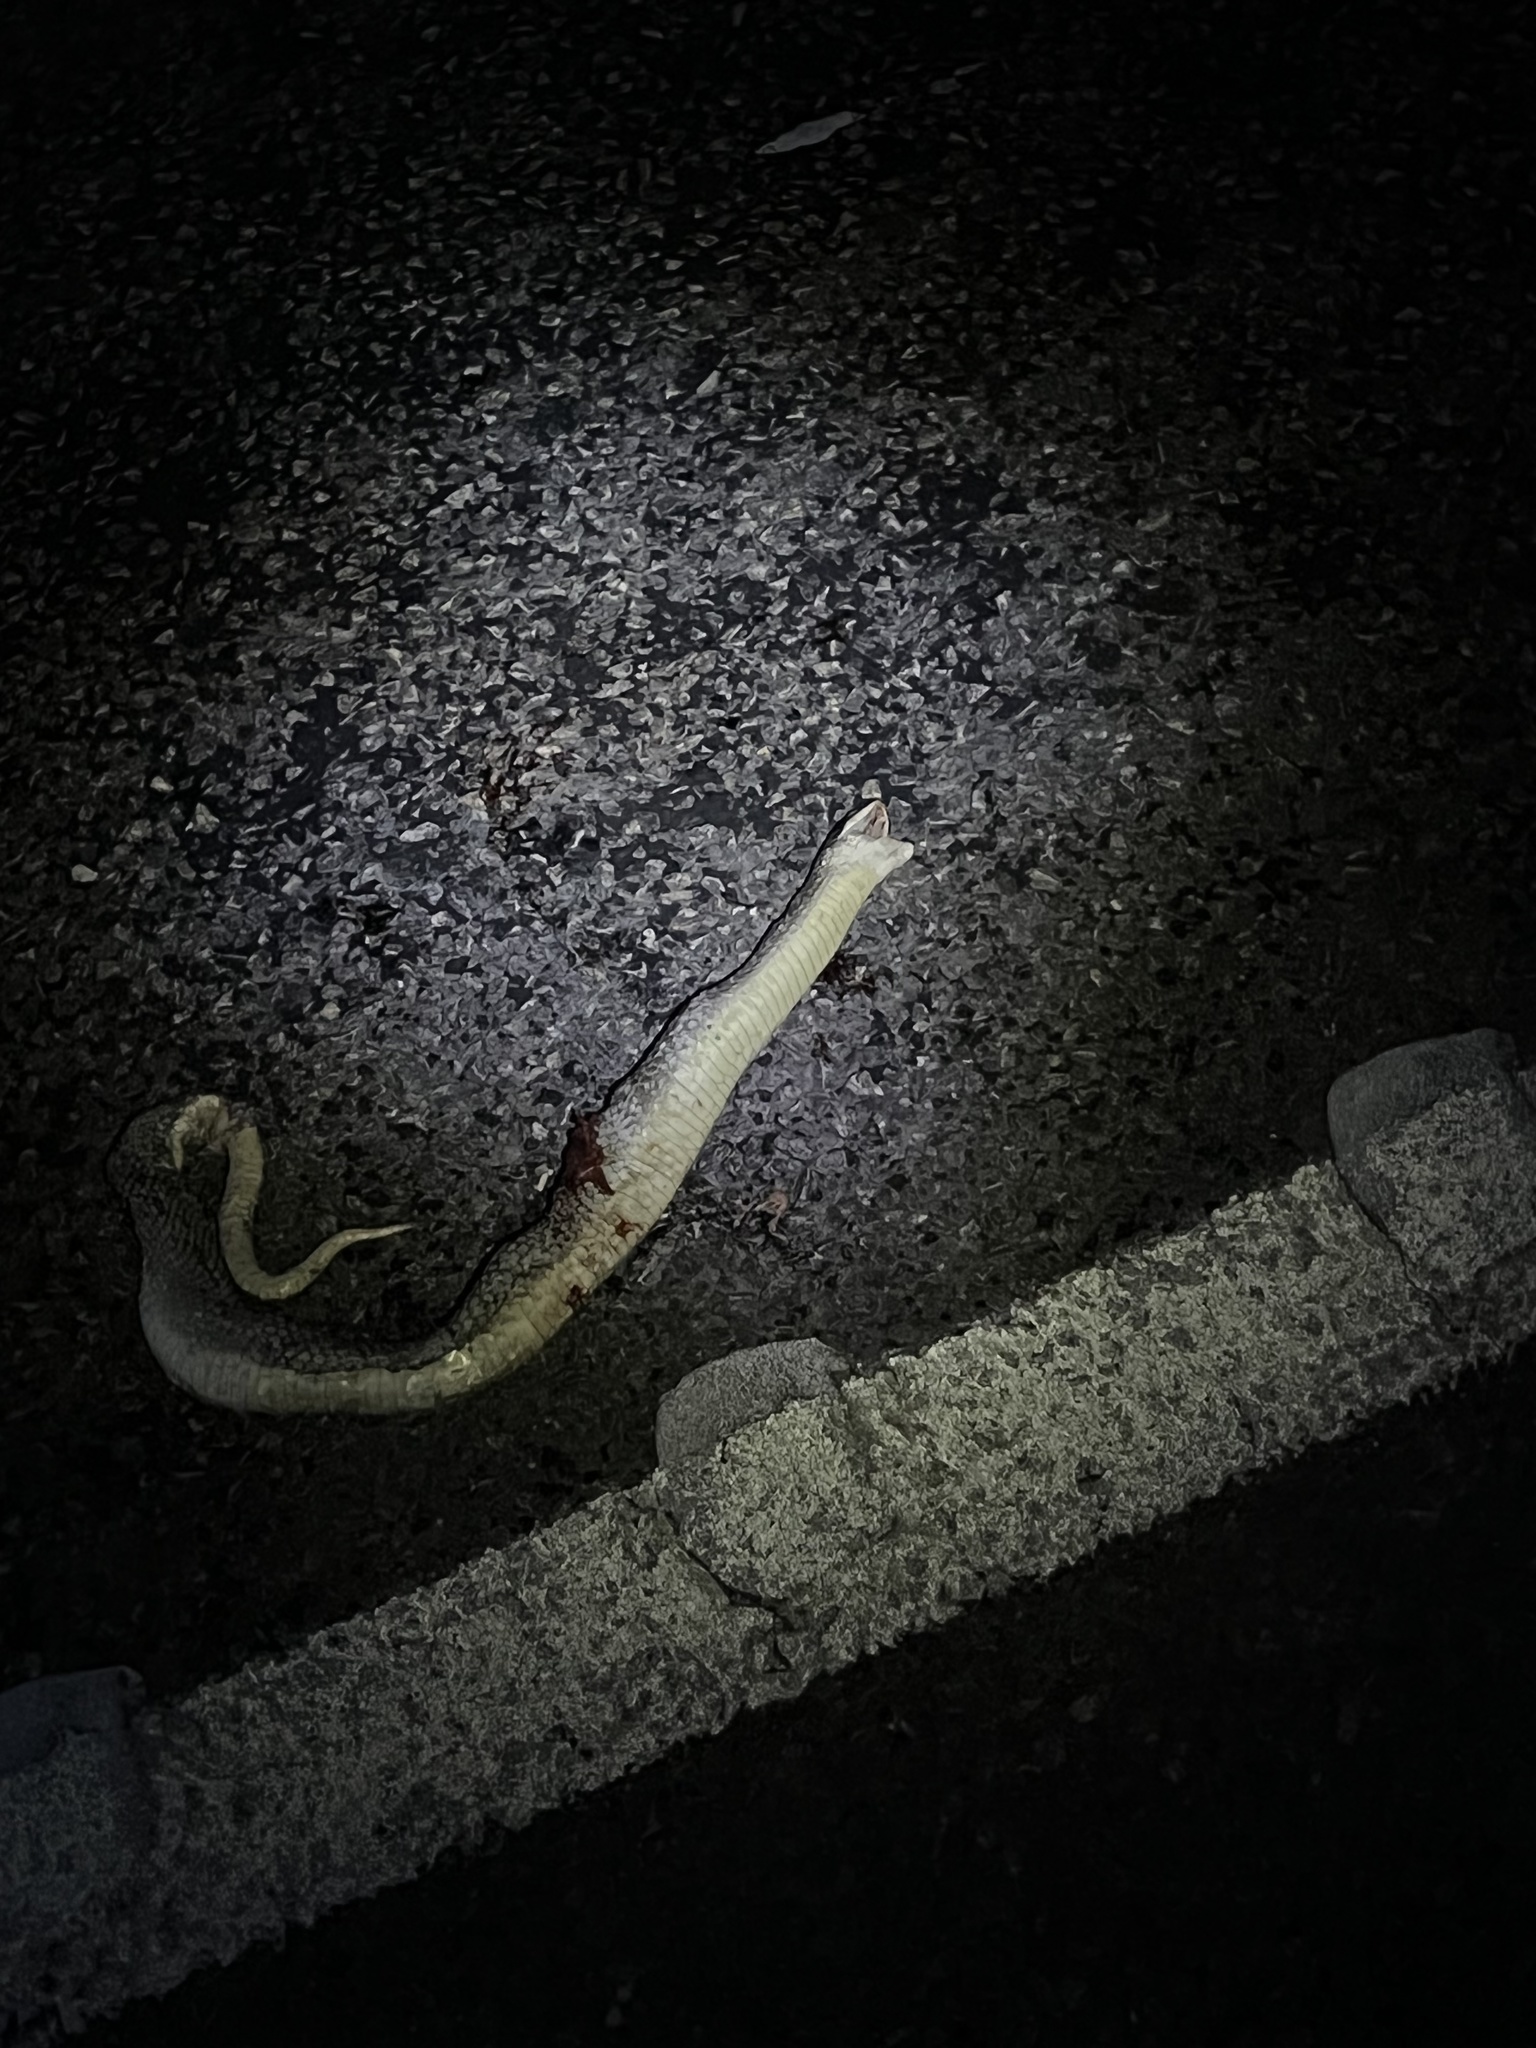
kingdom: Animalia
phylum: Chordata
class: Squamata
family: Colubridae
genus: Heterodon
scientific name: Heterodon platirhinos
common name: Eastern hognose snake
